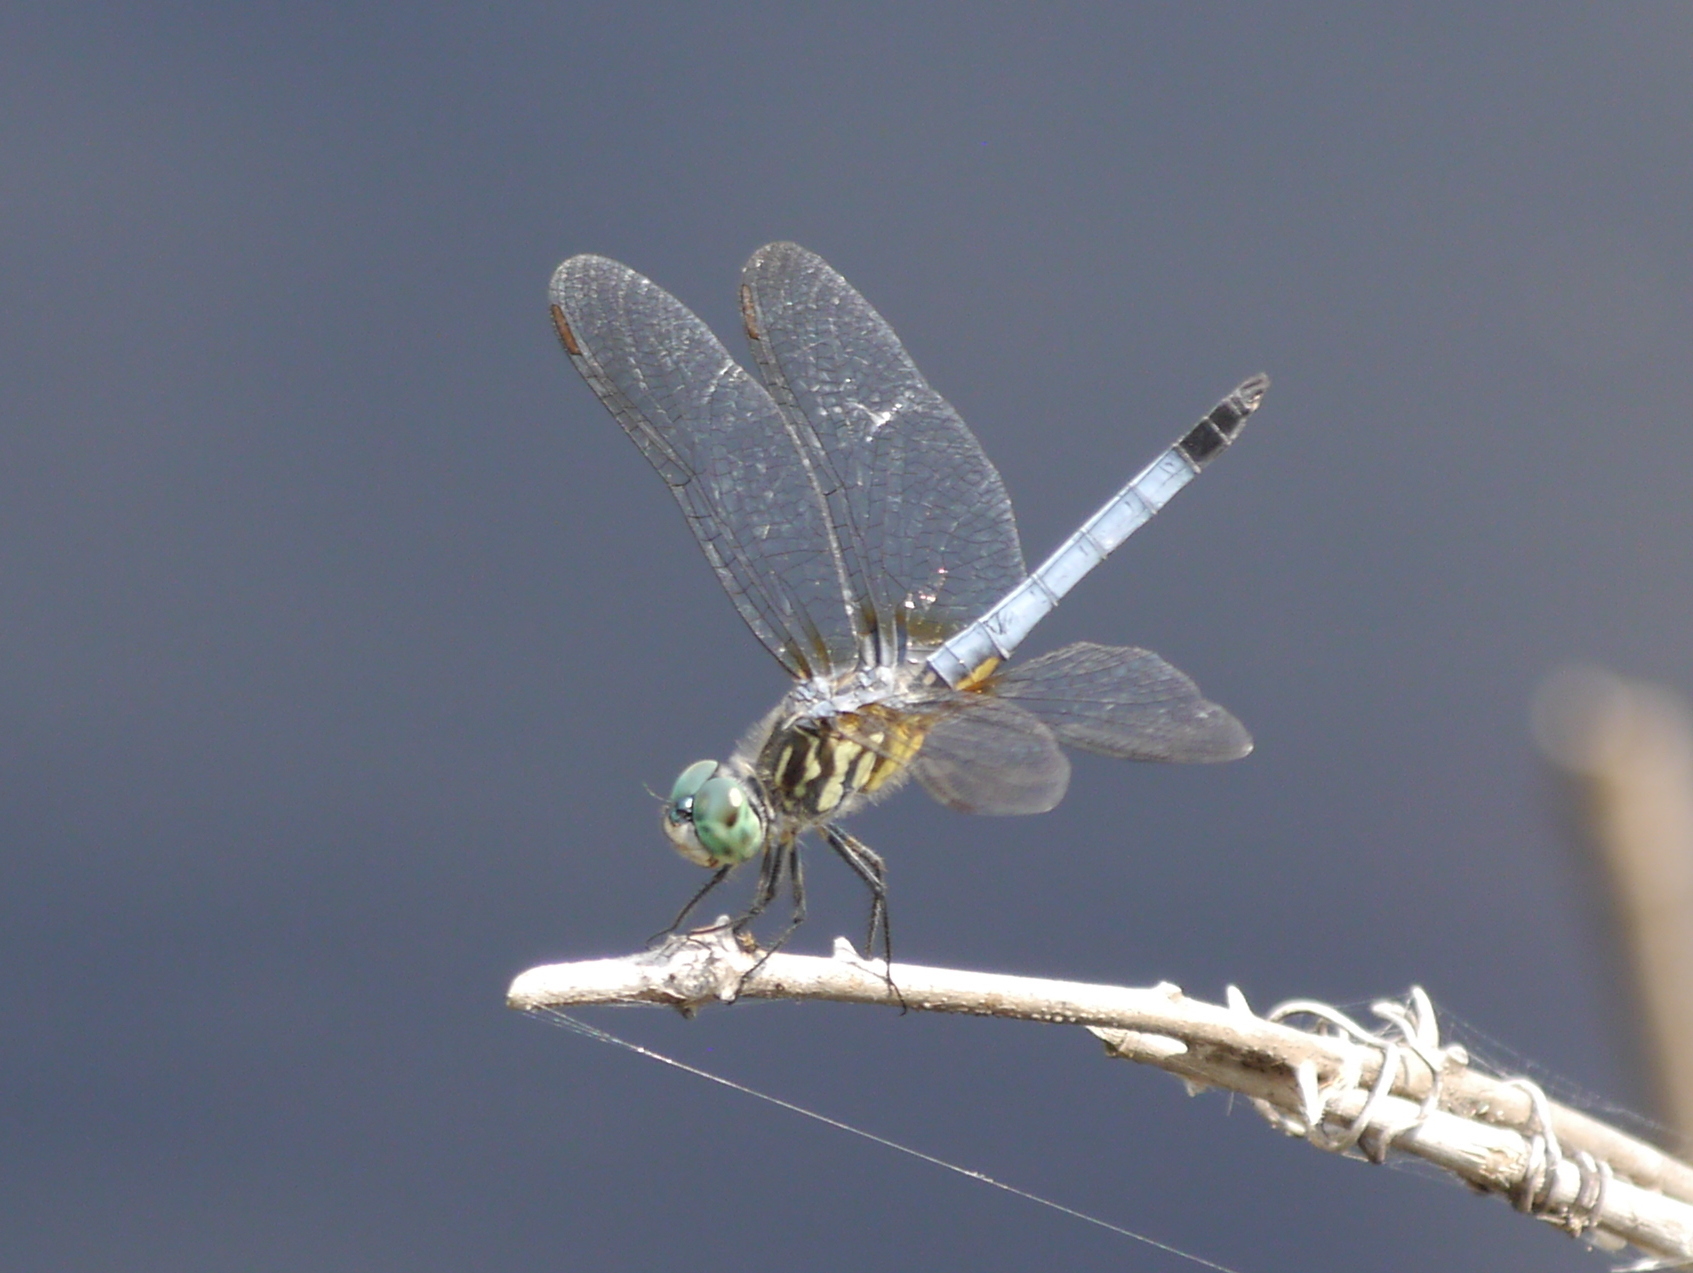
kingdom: Animalia
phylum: Arthropoda
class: Insecta
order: Odonata
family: Libellulidae
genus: Pachydiplax
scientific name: Pachydiplax longipennis
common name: Blue dasher
